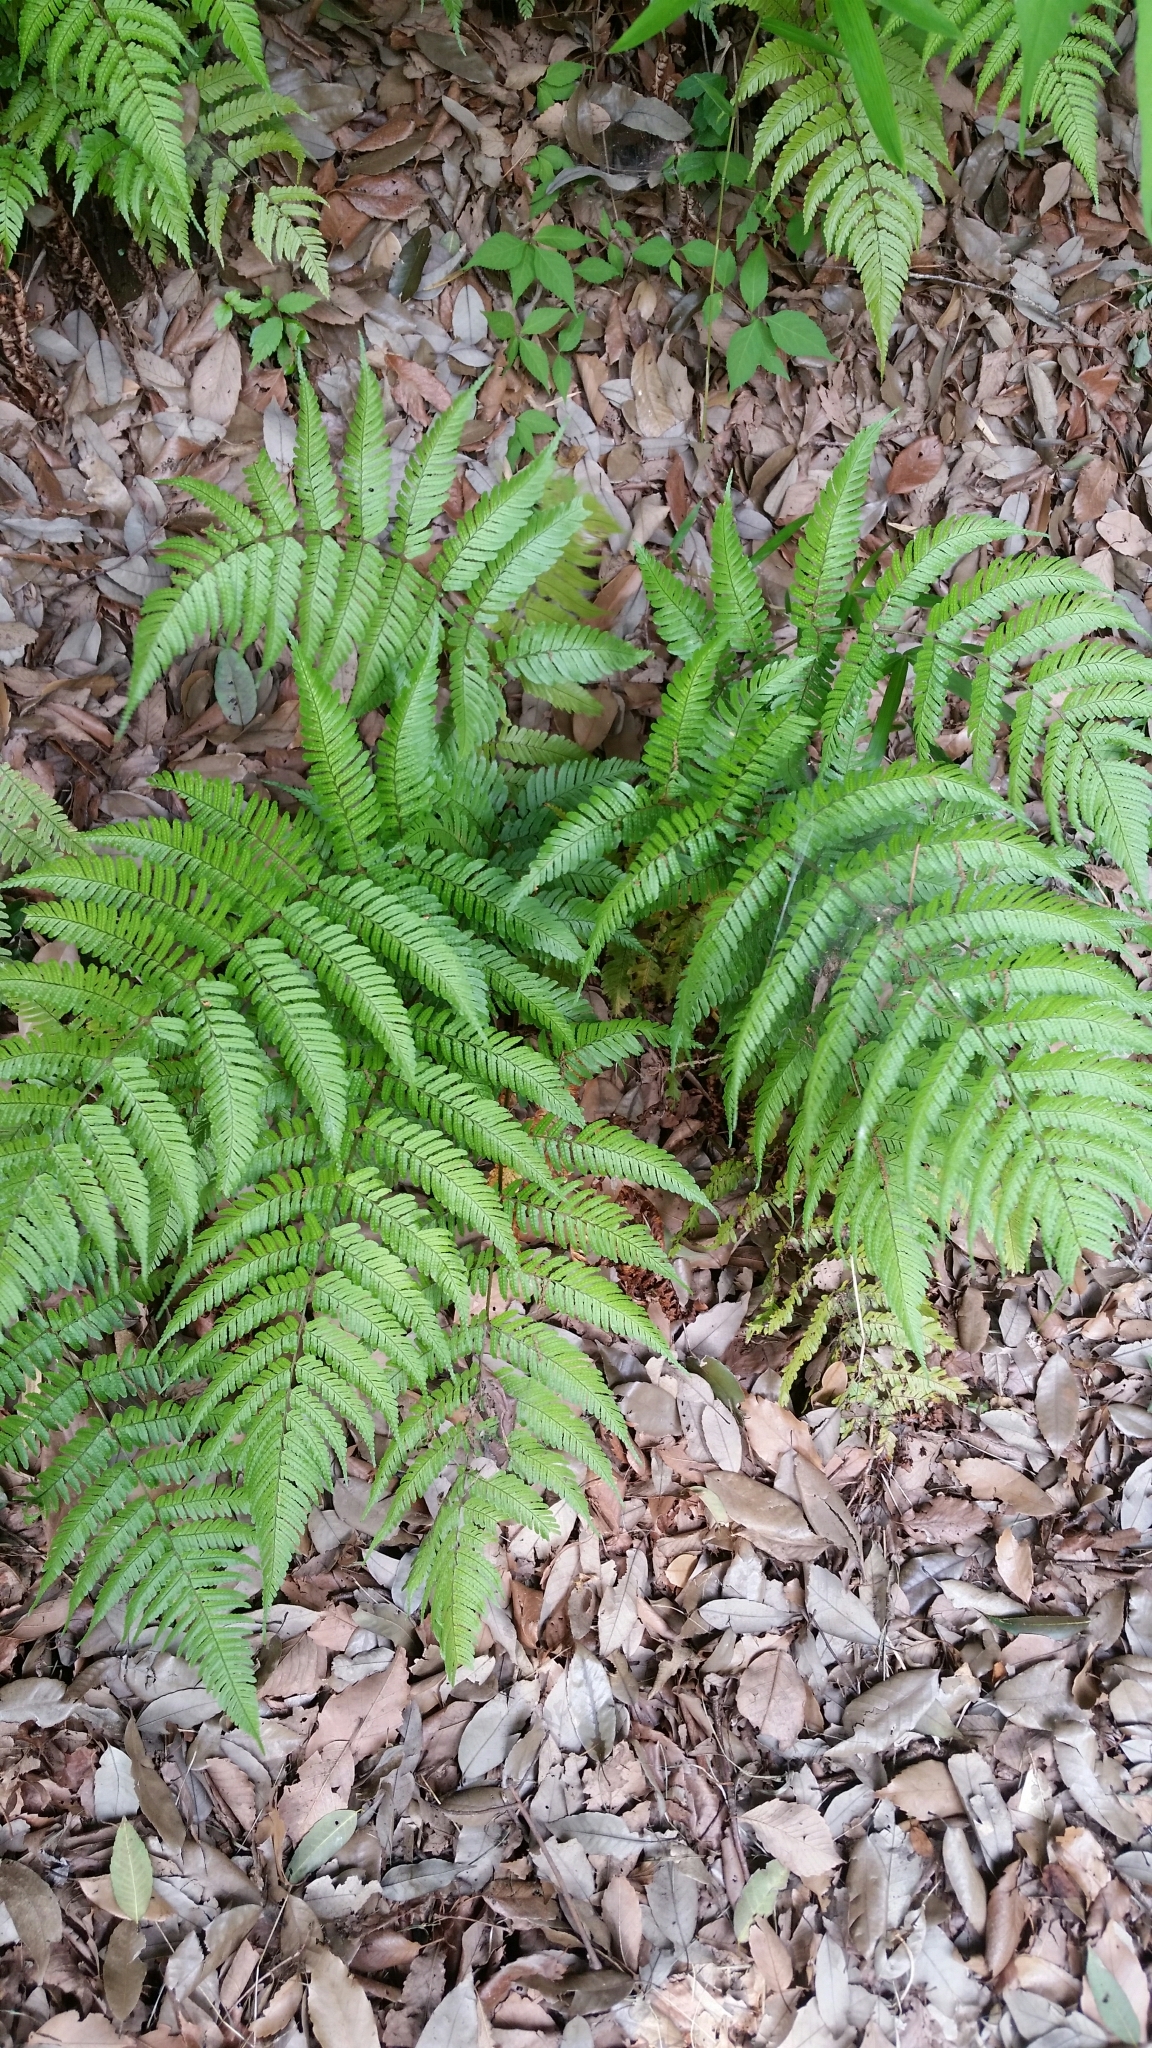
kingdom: Plantae
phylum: Tracheophyta
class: Polypodiopsida
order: Polypodiales
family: Dryopteridaceae
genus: Dryopteris
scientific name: Dryopteris erythrosora
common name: Autumn fern
